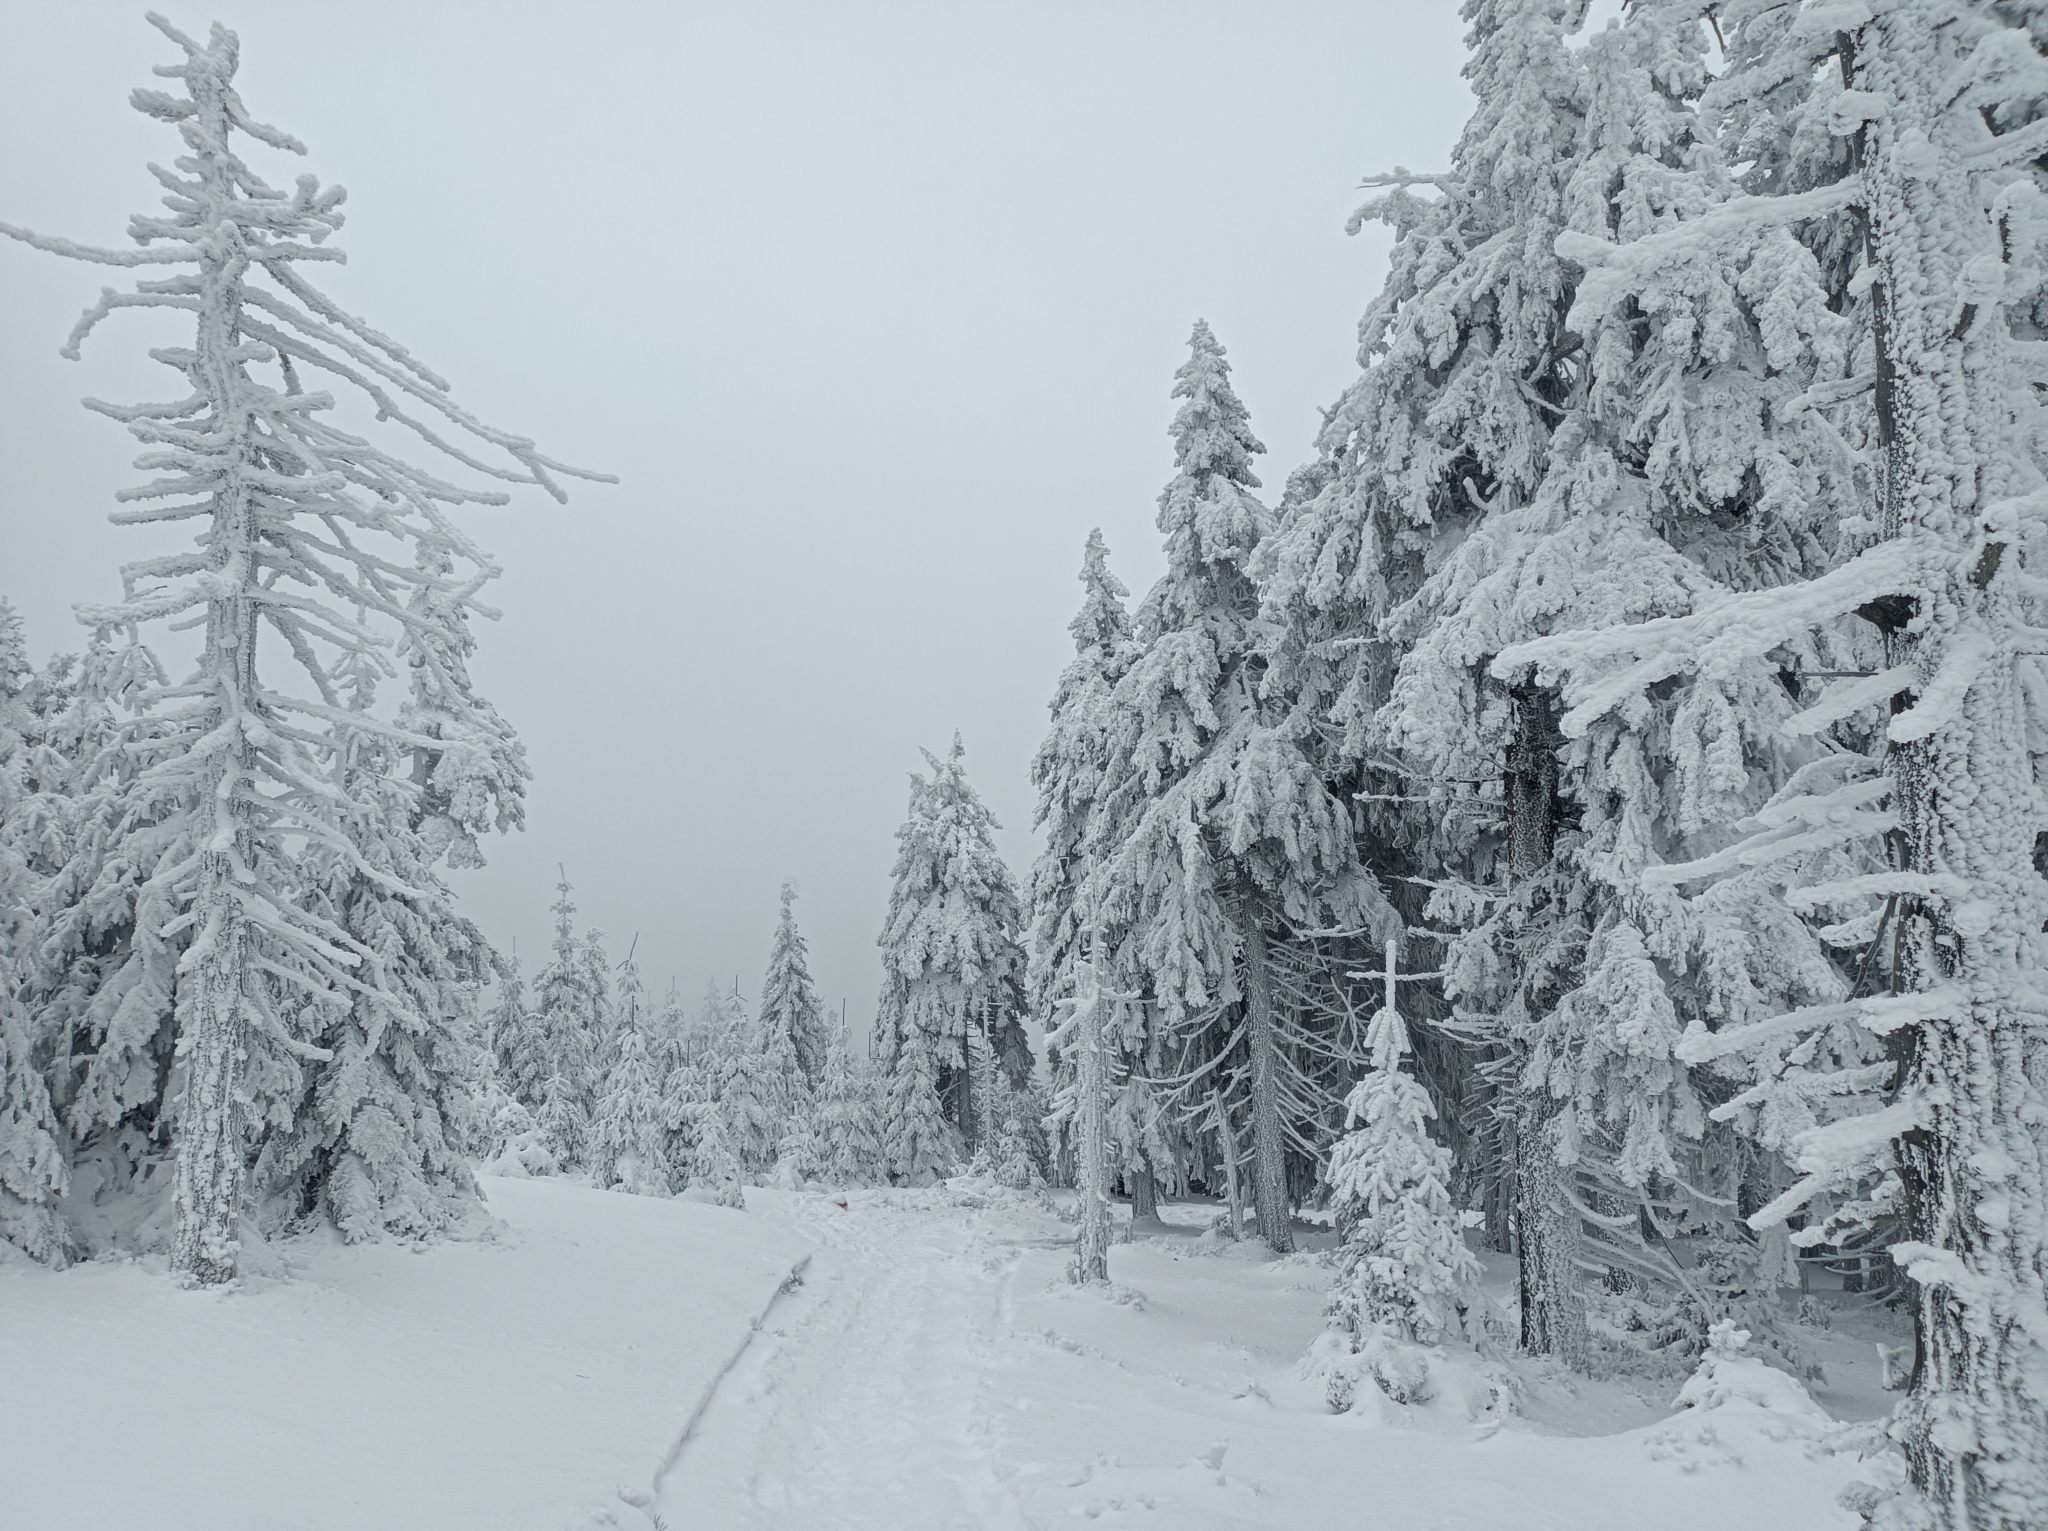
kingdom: Plantae
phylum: Tracheophyta
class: Pinopsida
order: Pinales
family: Pinaceae
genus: Picea
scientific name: Picea abies
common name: Norway spruce
